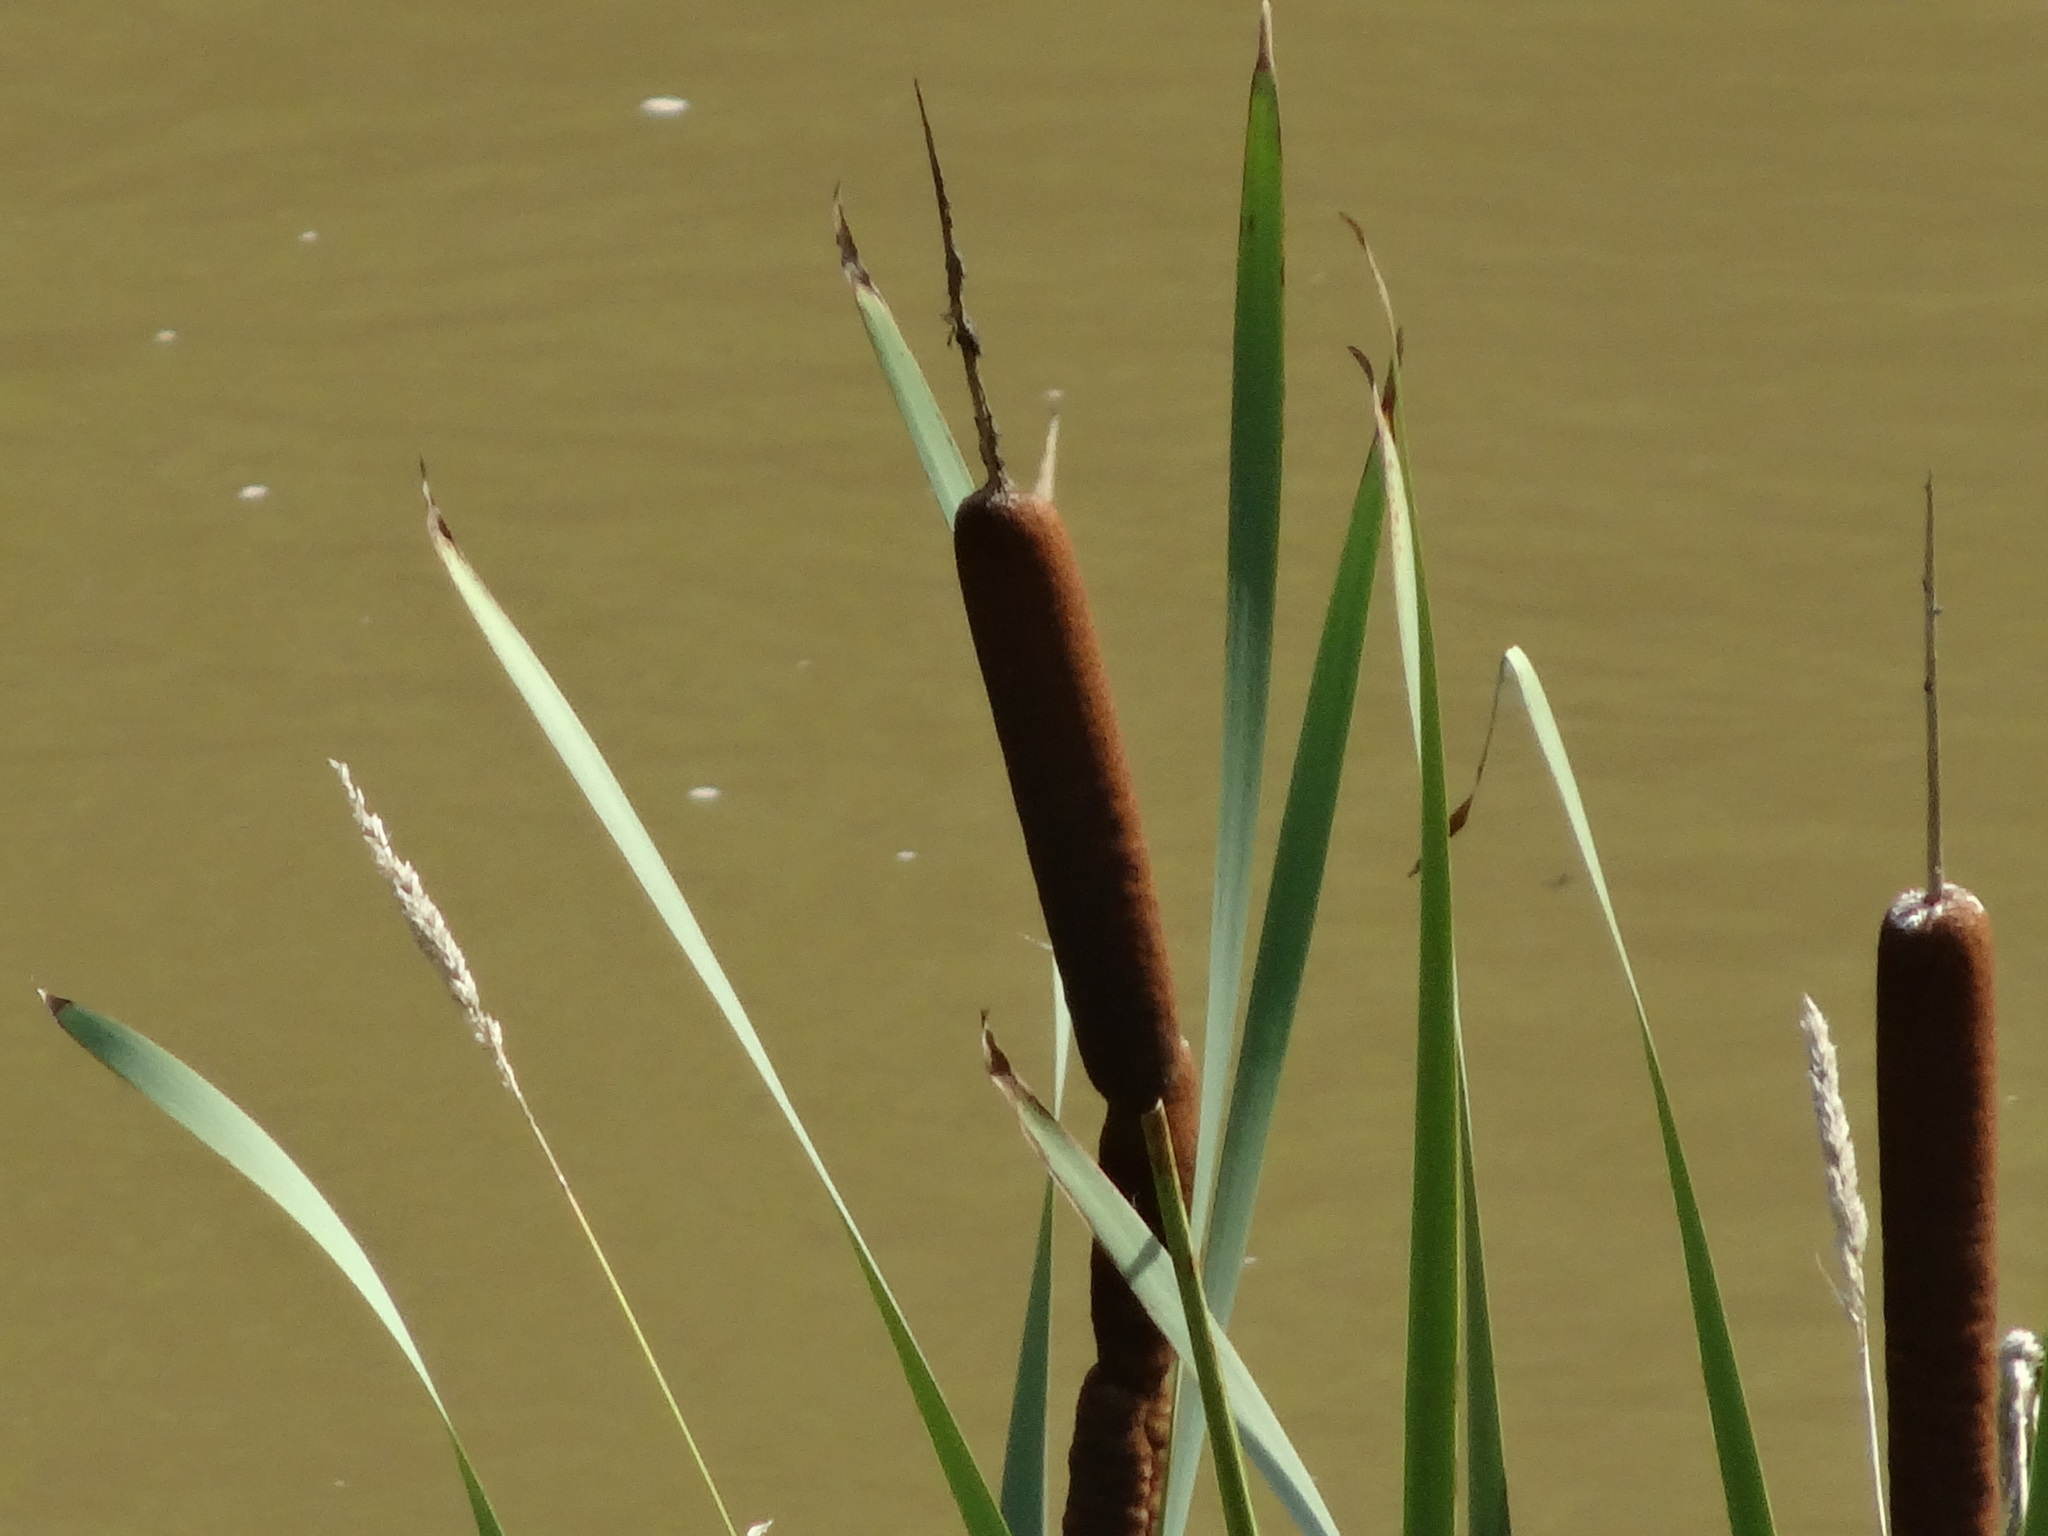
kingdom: Plantae
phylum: Tracheophyta
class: Liliopsida
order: Poales
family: Typhaceae
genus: Typha
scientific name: Typha latifolia
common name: Broadleaf cattail
